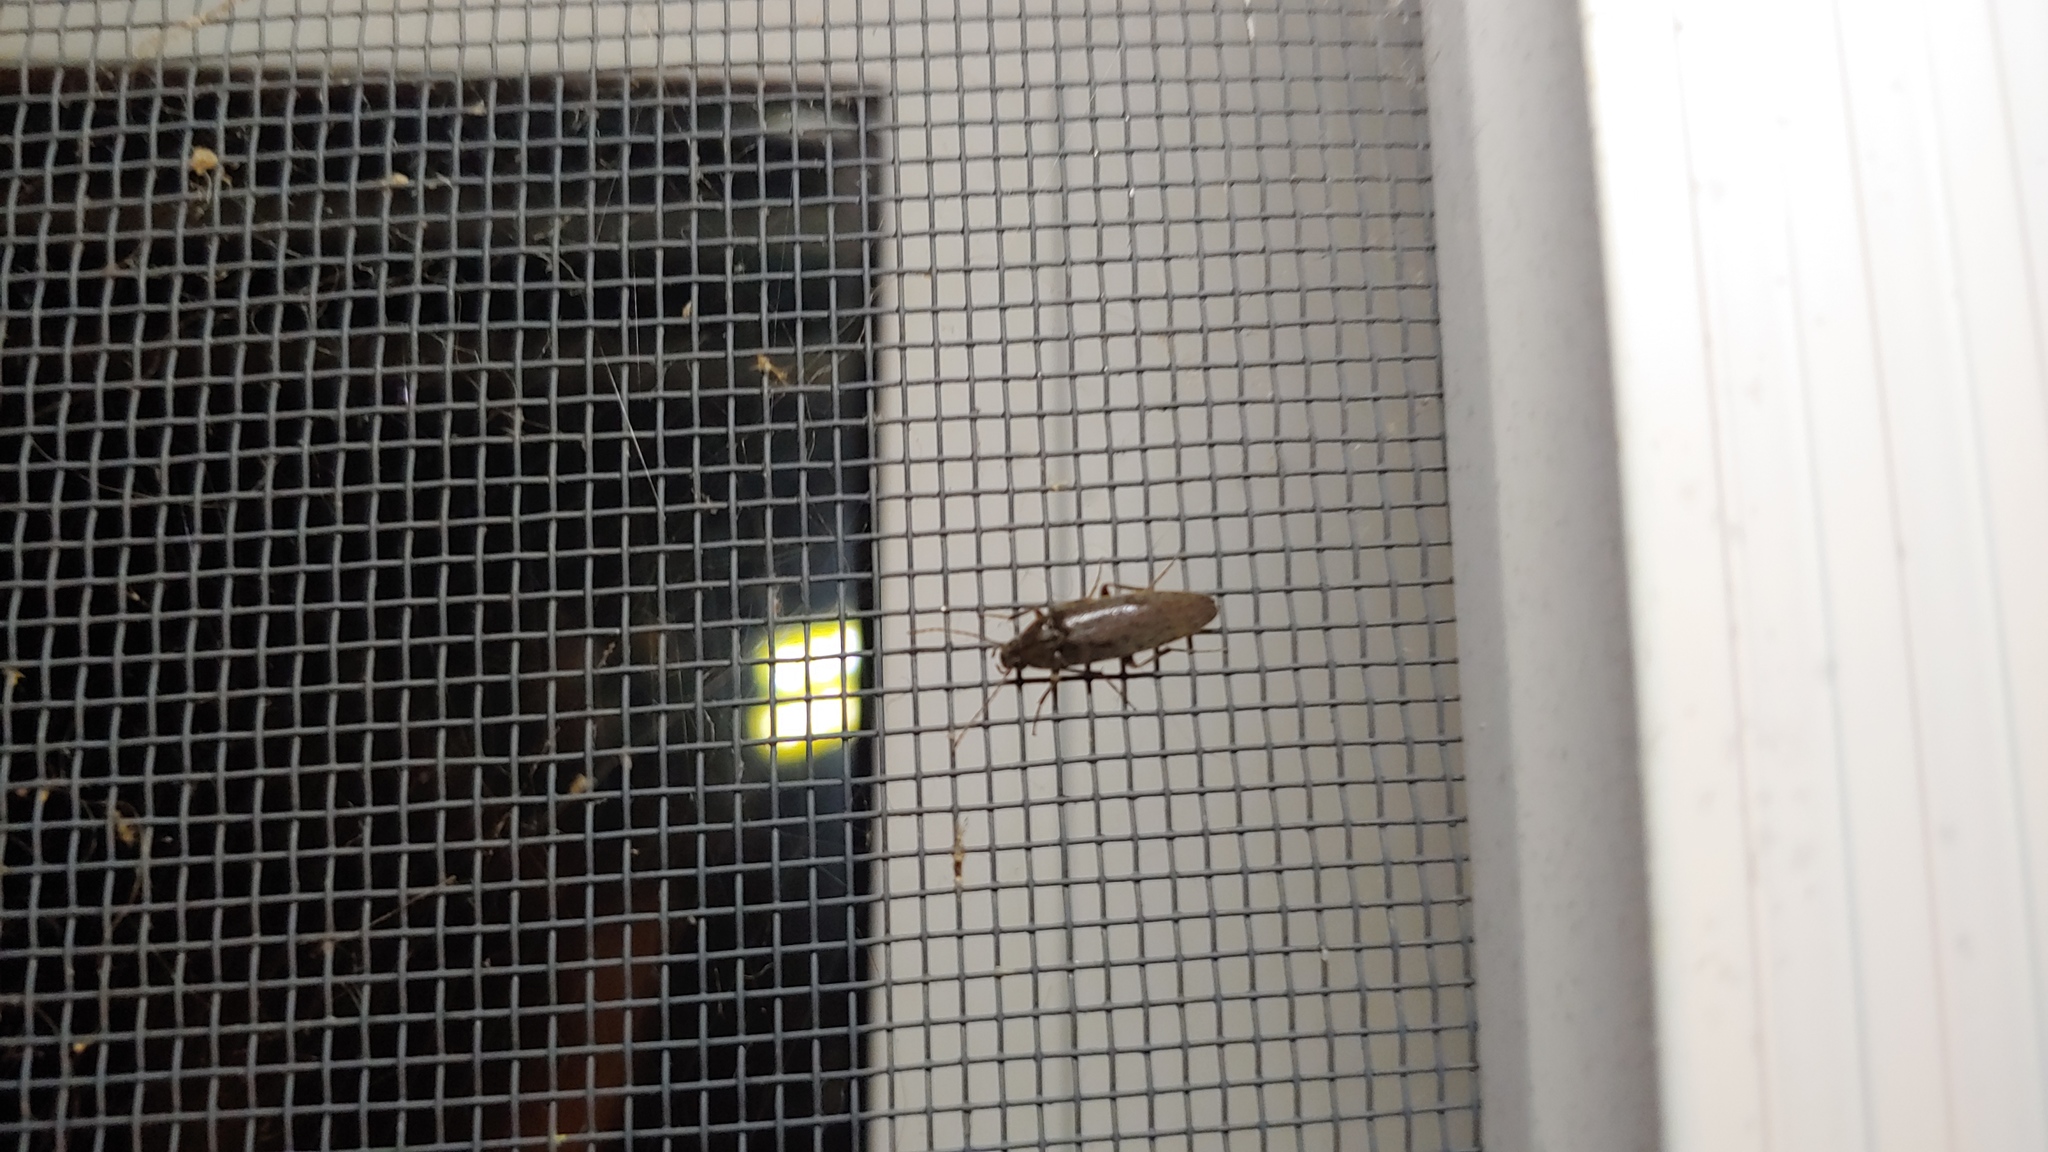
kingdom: Animalia
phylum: Arthropoda
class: Insecta
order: Coleoptera
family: Synchroidae
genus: Synchroa
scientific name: Synchroa punctata
